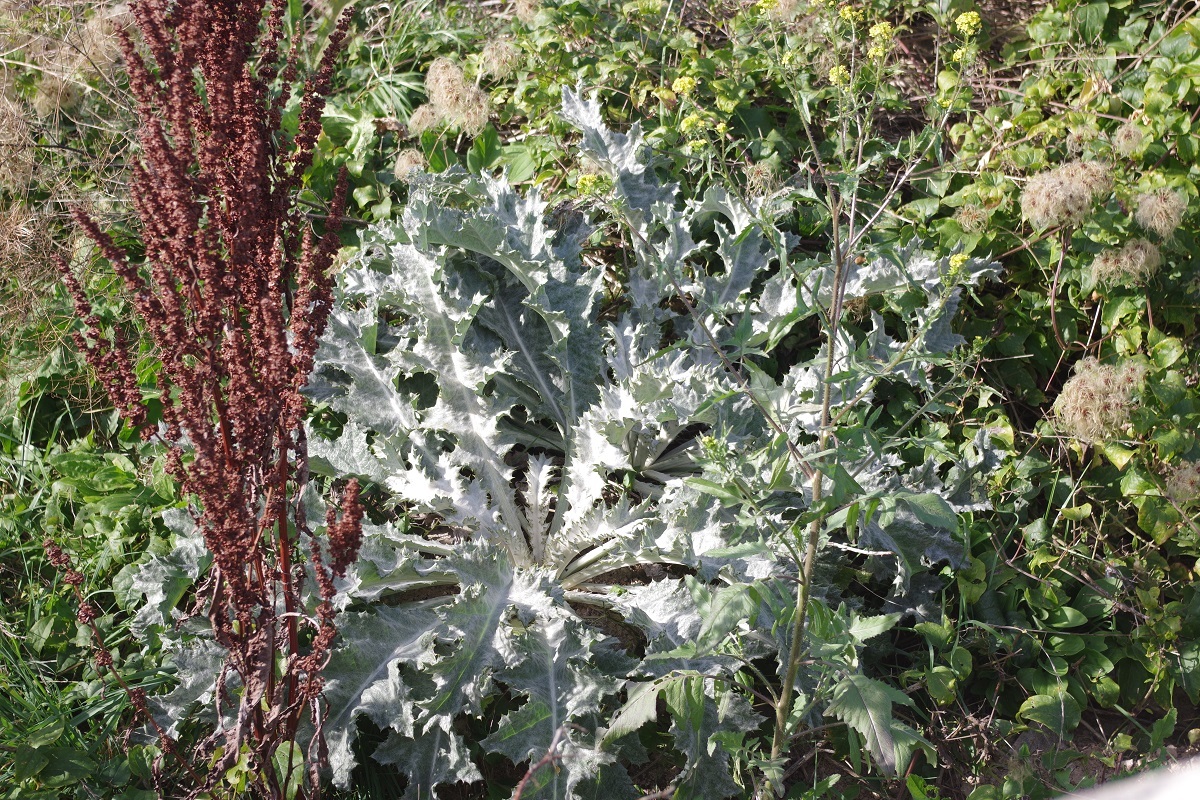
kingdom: Plantae
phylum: Tracheophyta
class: Magnoliopsida
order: Asterales
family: Asteraceae
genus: Onopordum
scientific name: Onopordum acanthium
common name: Scotch thistle
